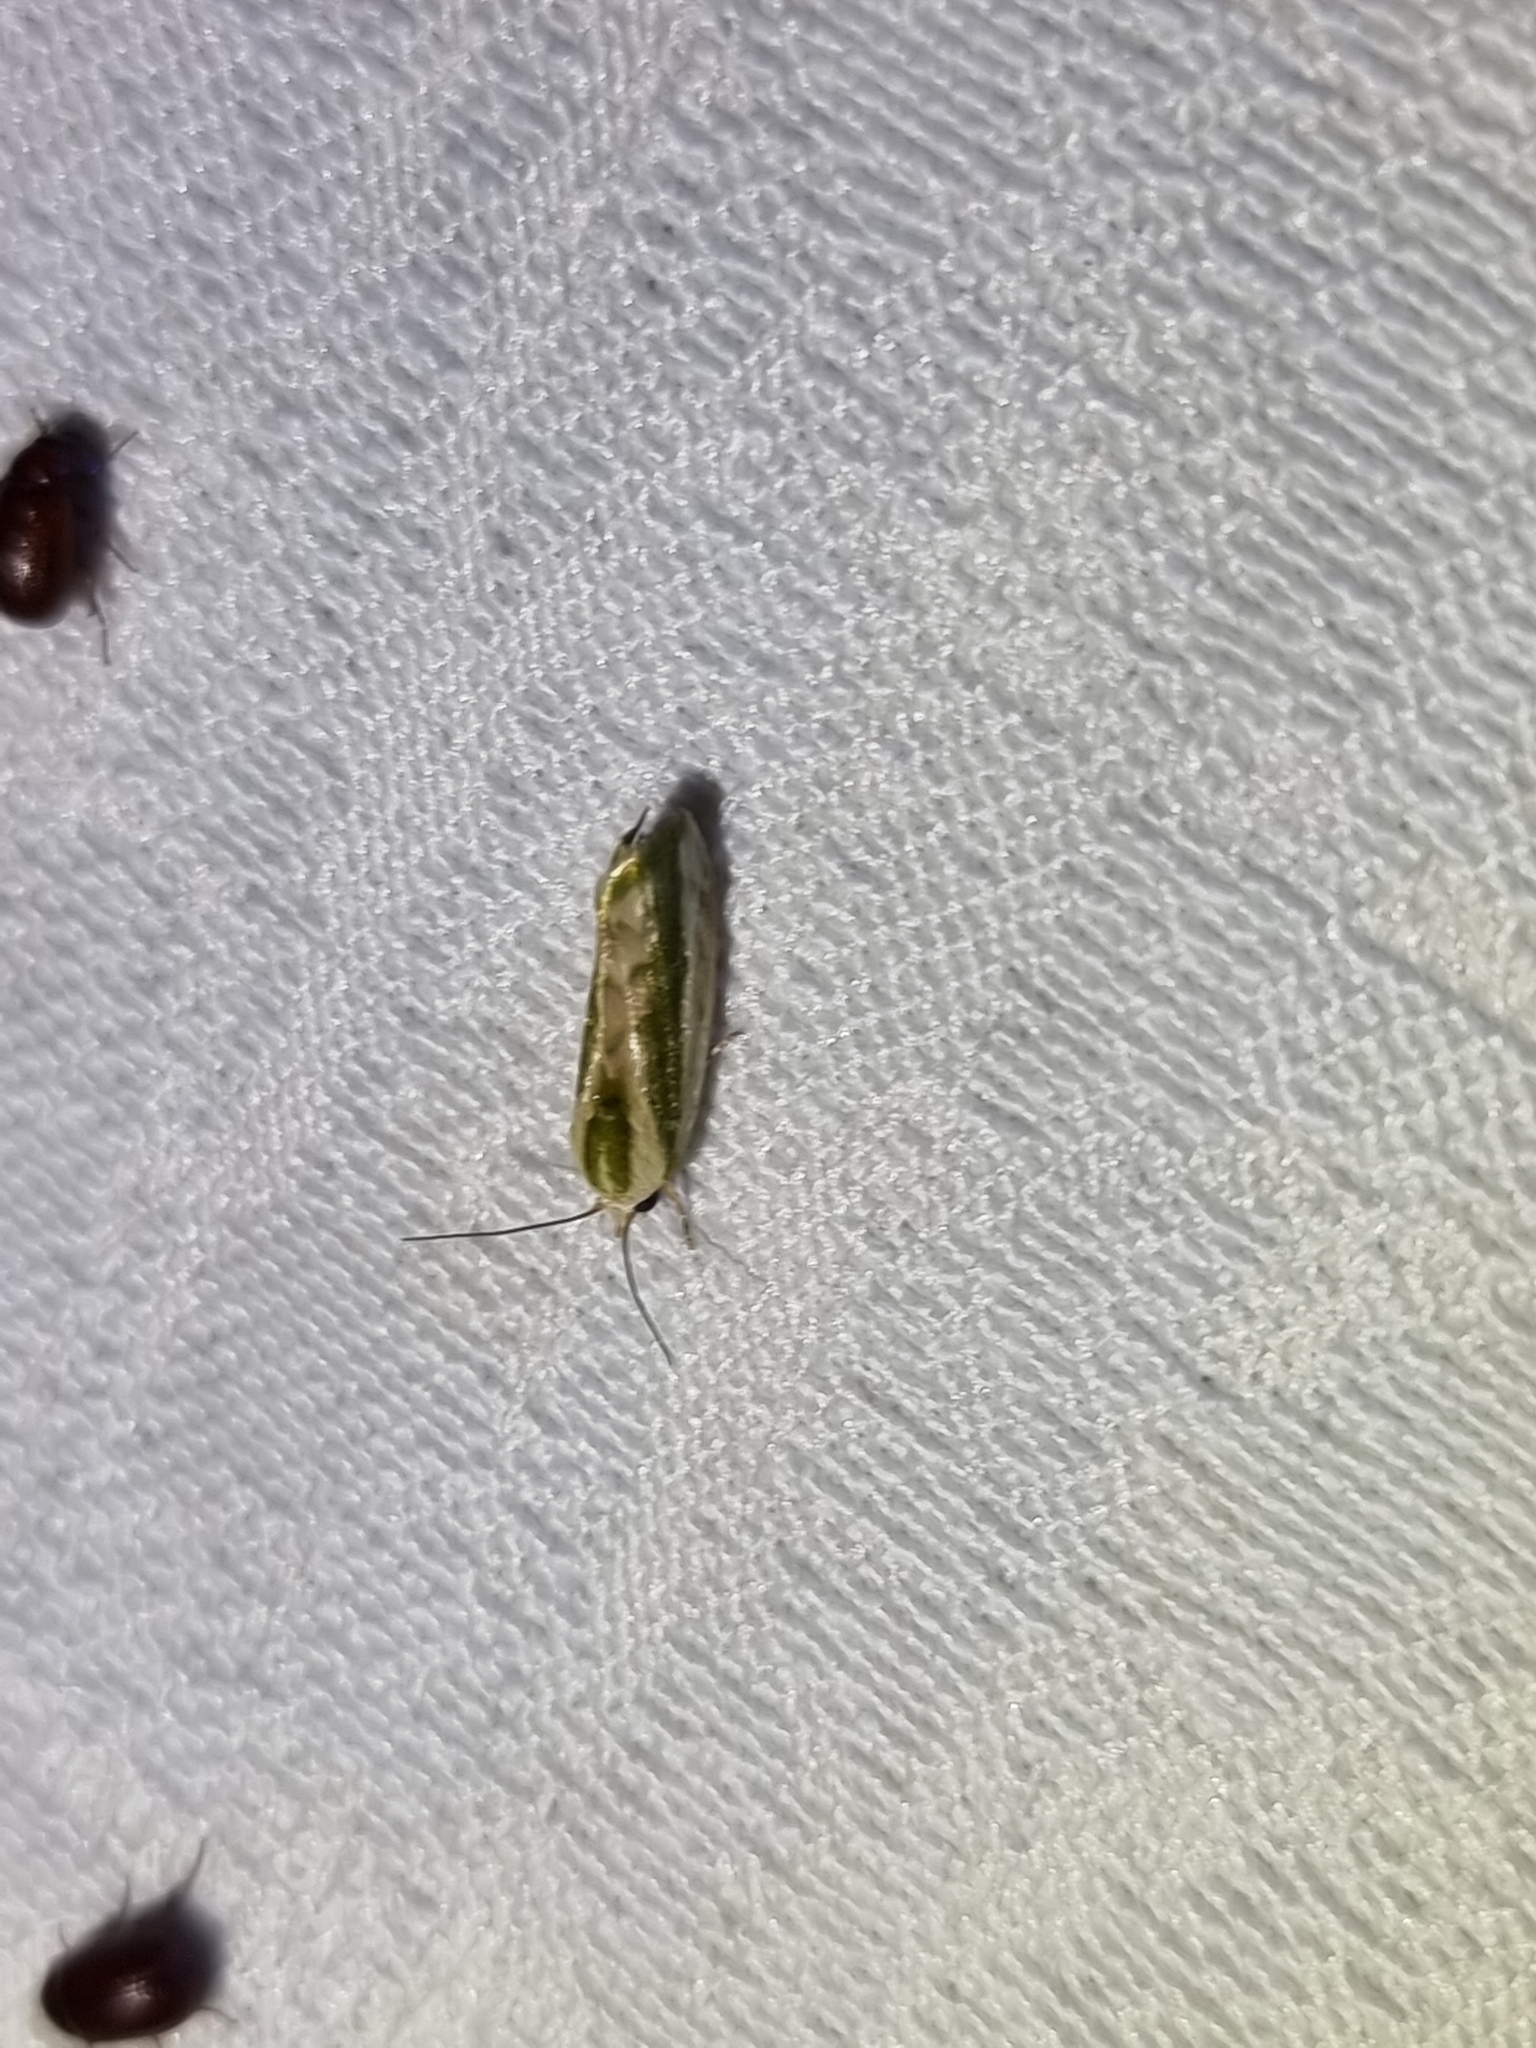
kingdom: Animalia
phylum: Arthropoda
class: Insecta
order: Lepidoptera
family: Nolidae
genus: Earias
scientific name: Earias huegeliana
